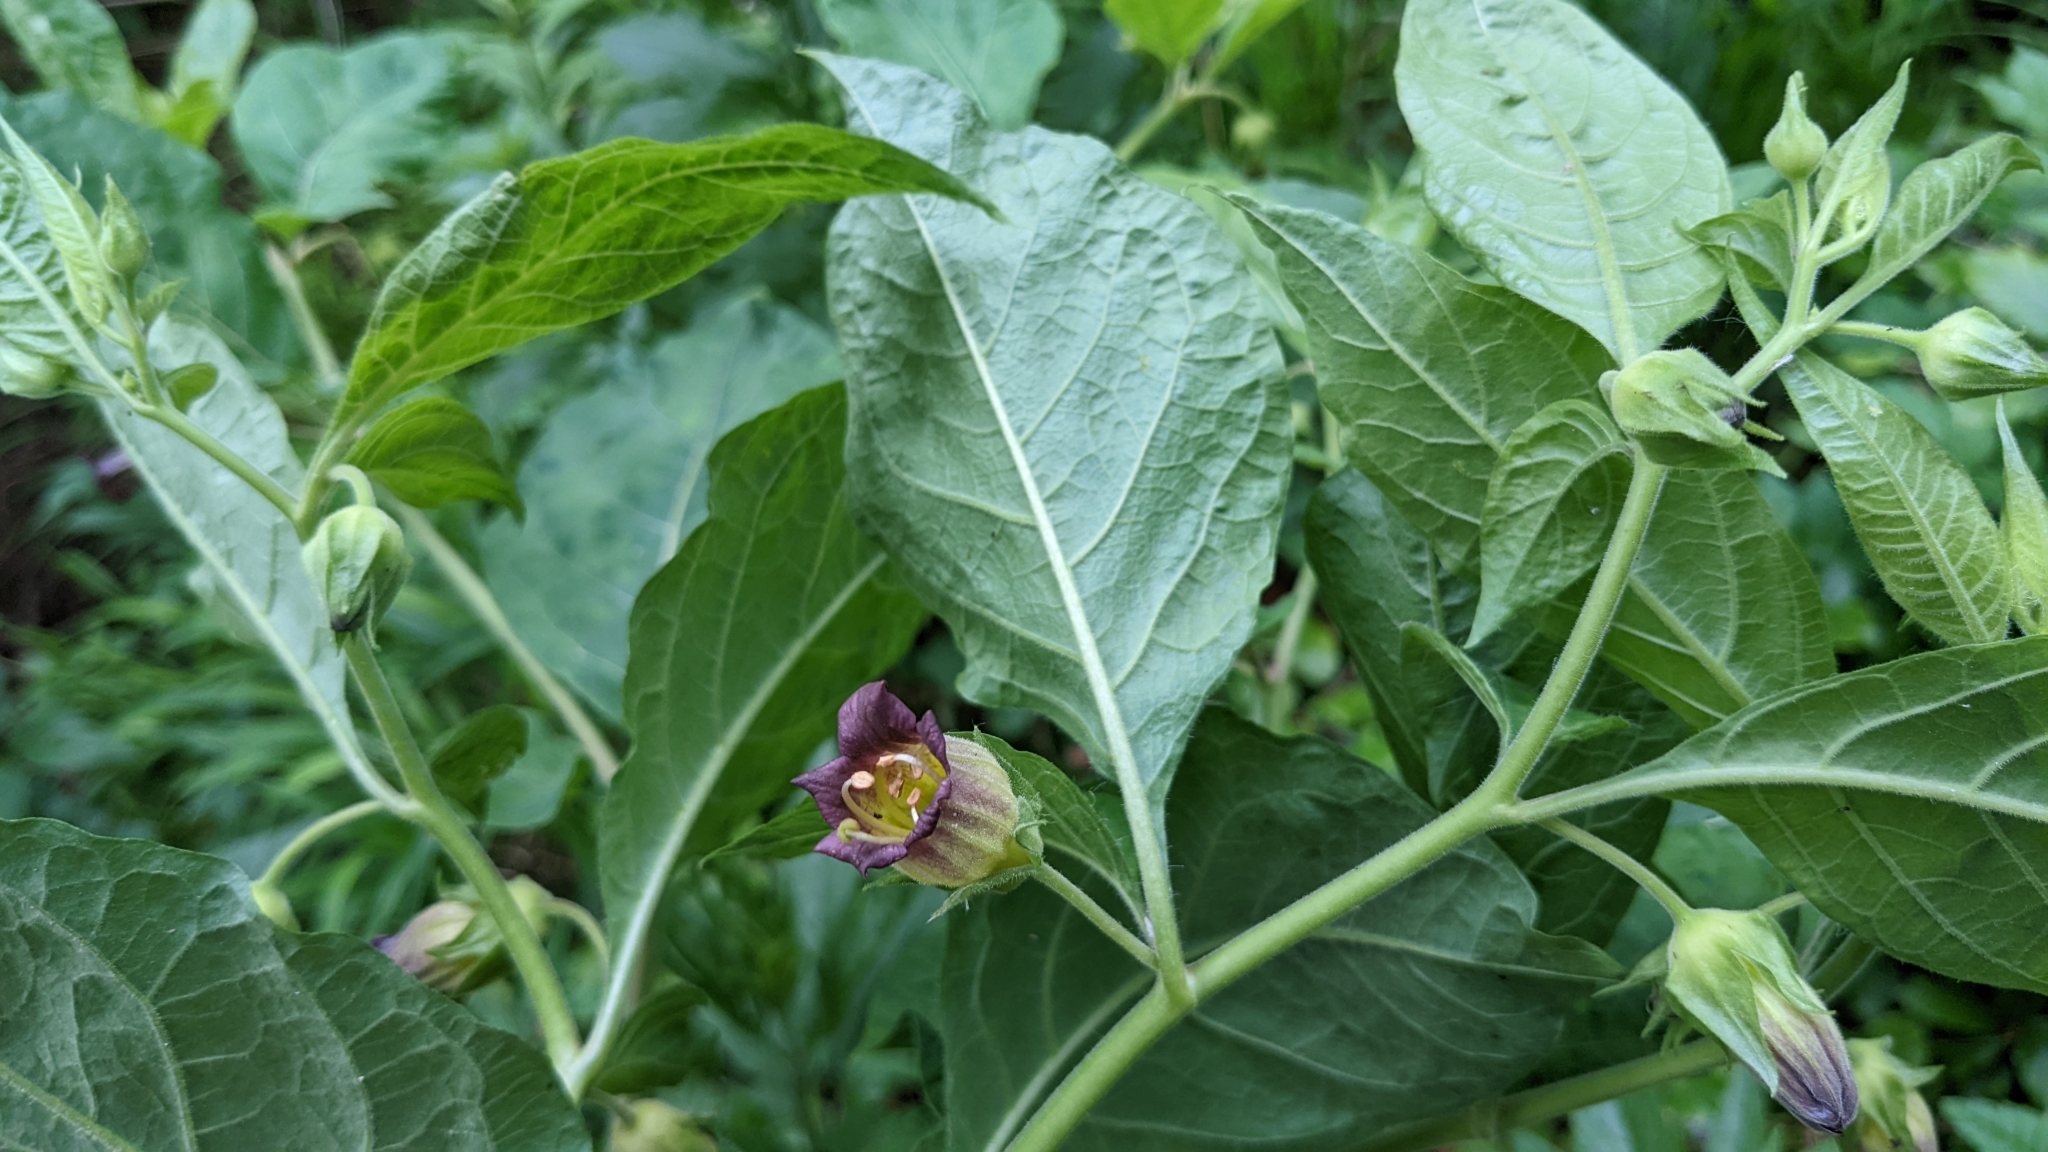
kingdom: Plantae
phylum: Tracheophyta
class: Magnoliopsida
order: Solanales
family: Solanaceae
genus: Atropa
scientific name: Atropa belladonna
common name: Deadly nightshade
